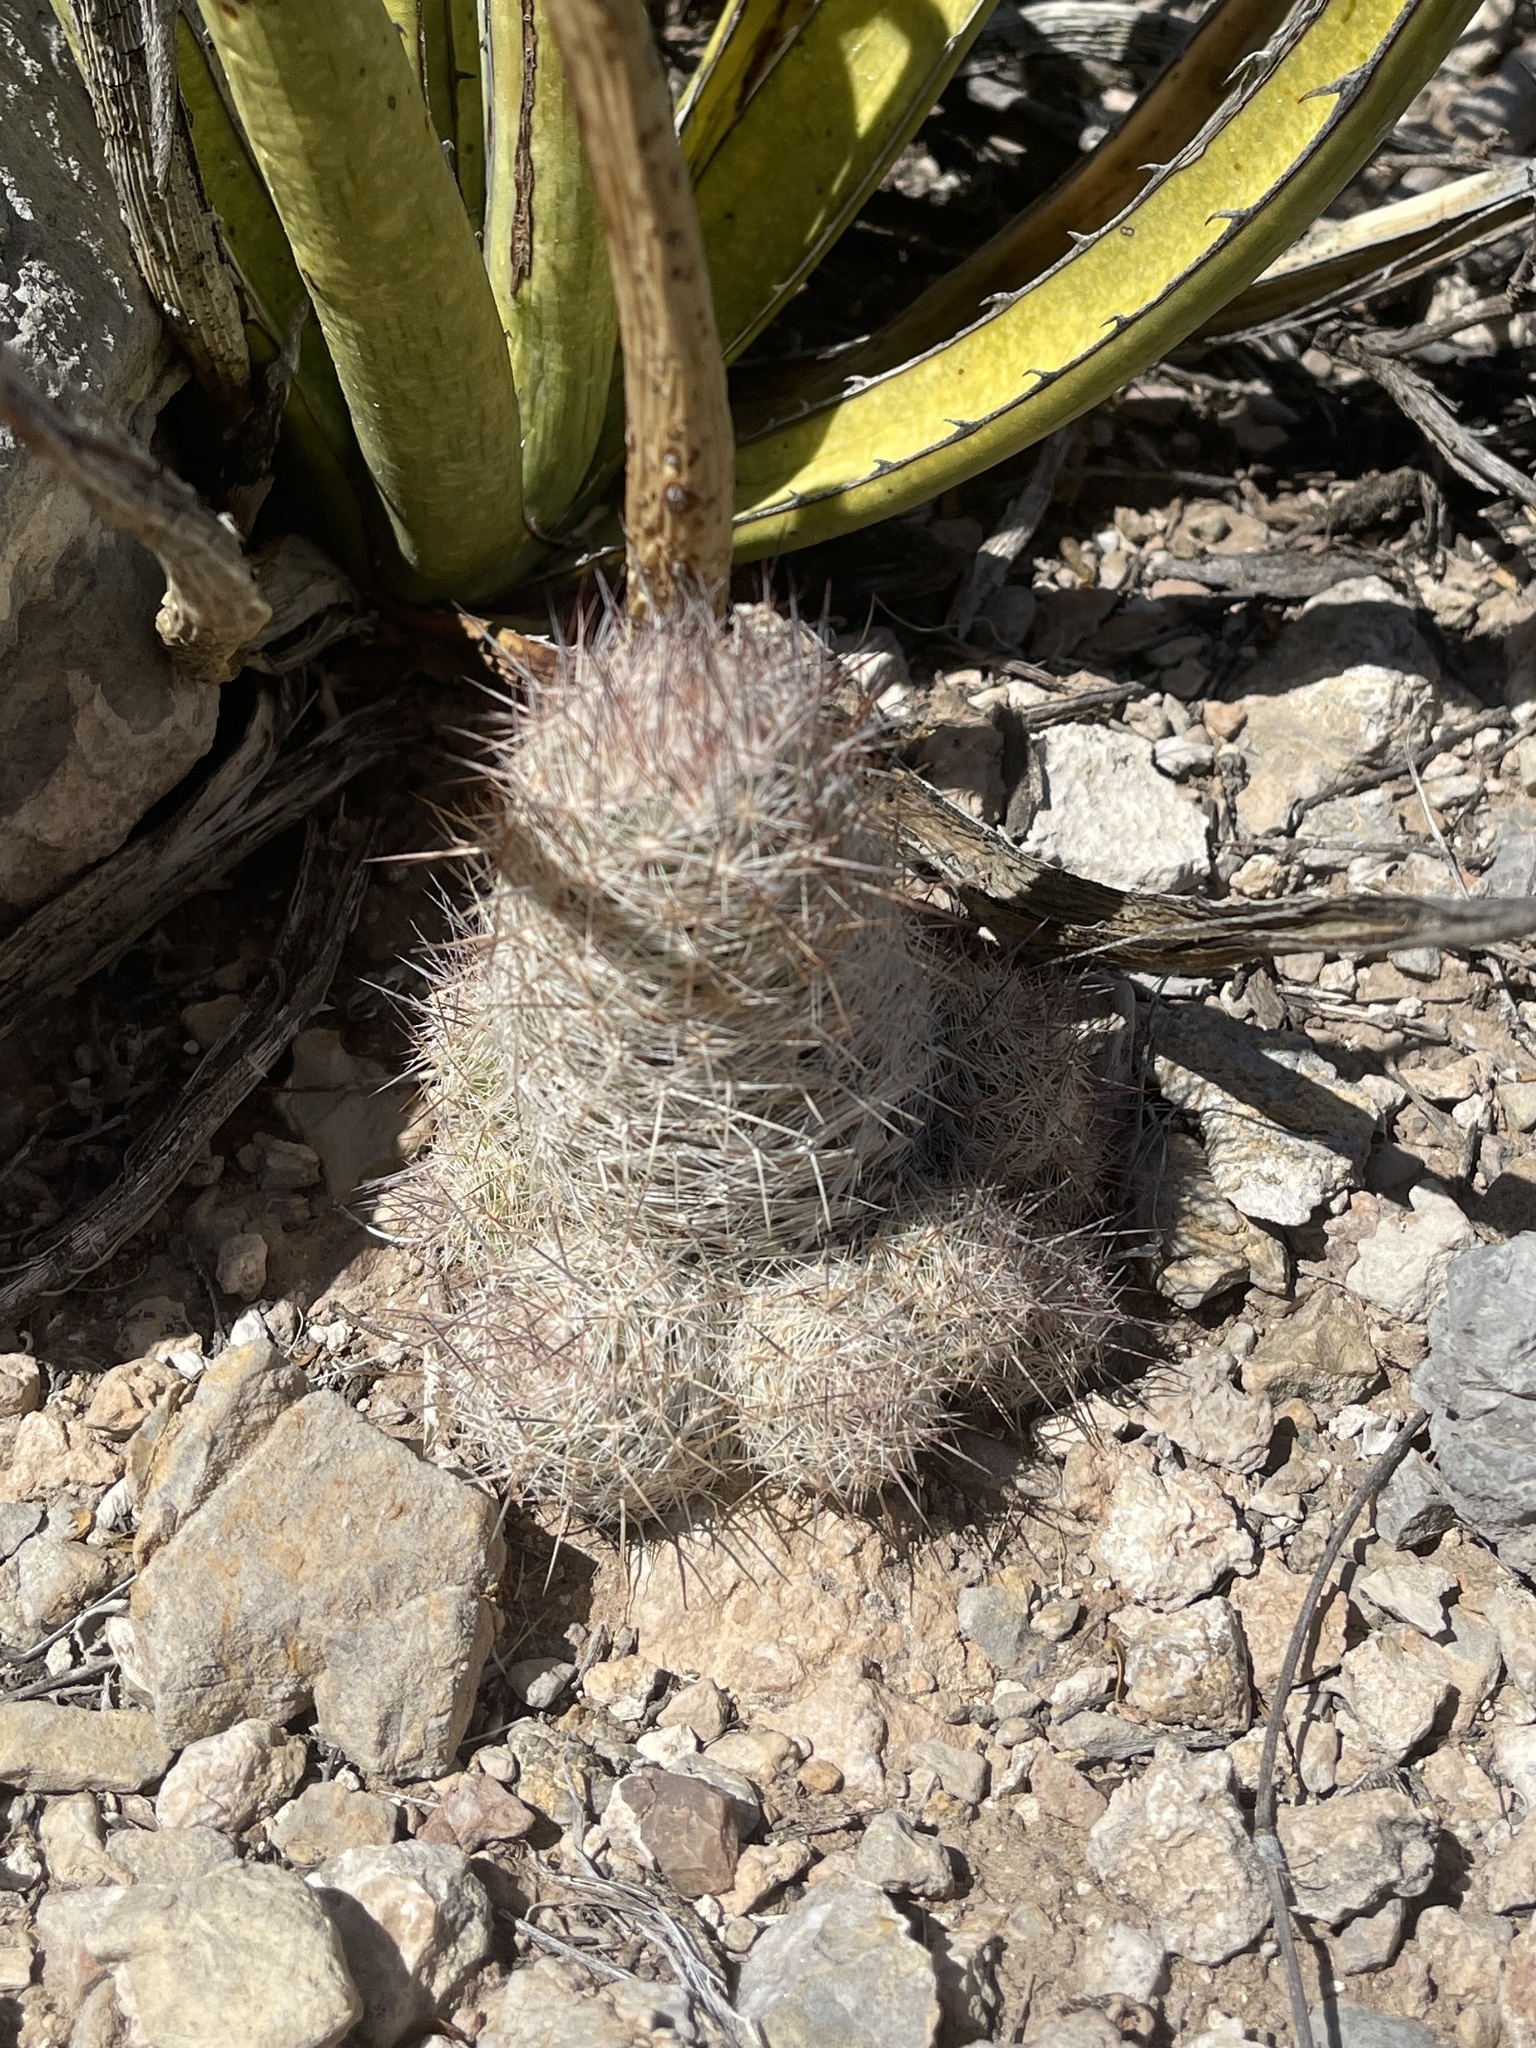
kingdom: Plantae
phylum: Tracheophyta
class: Magnoliopsida
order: Caryophyllales
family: Cactaceae
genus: Pelecyphora
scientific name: Pelecyphora tuberculosa
